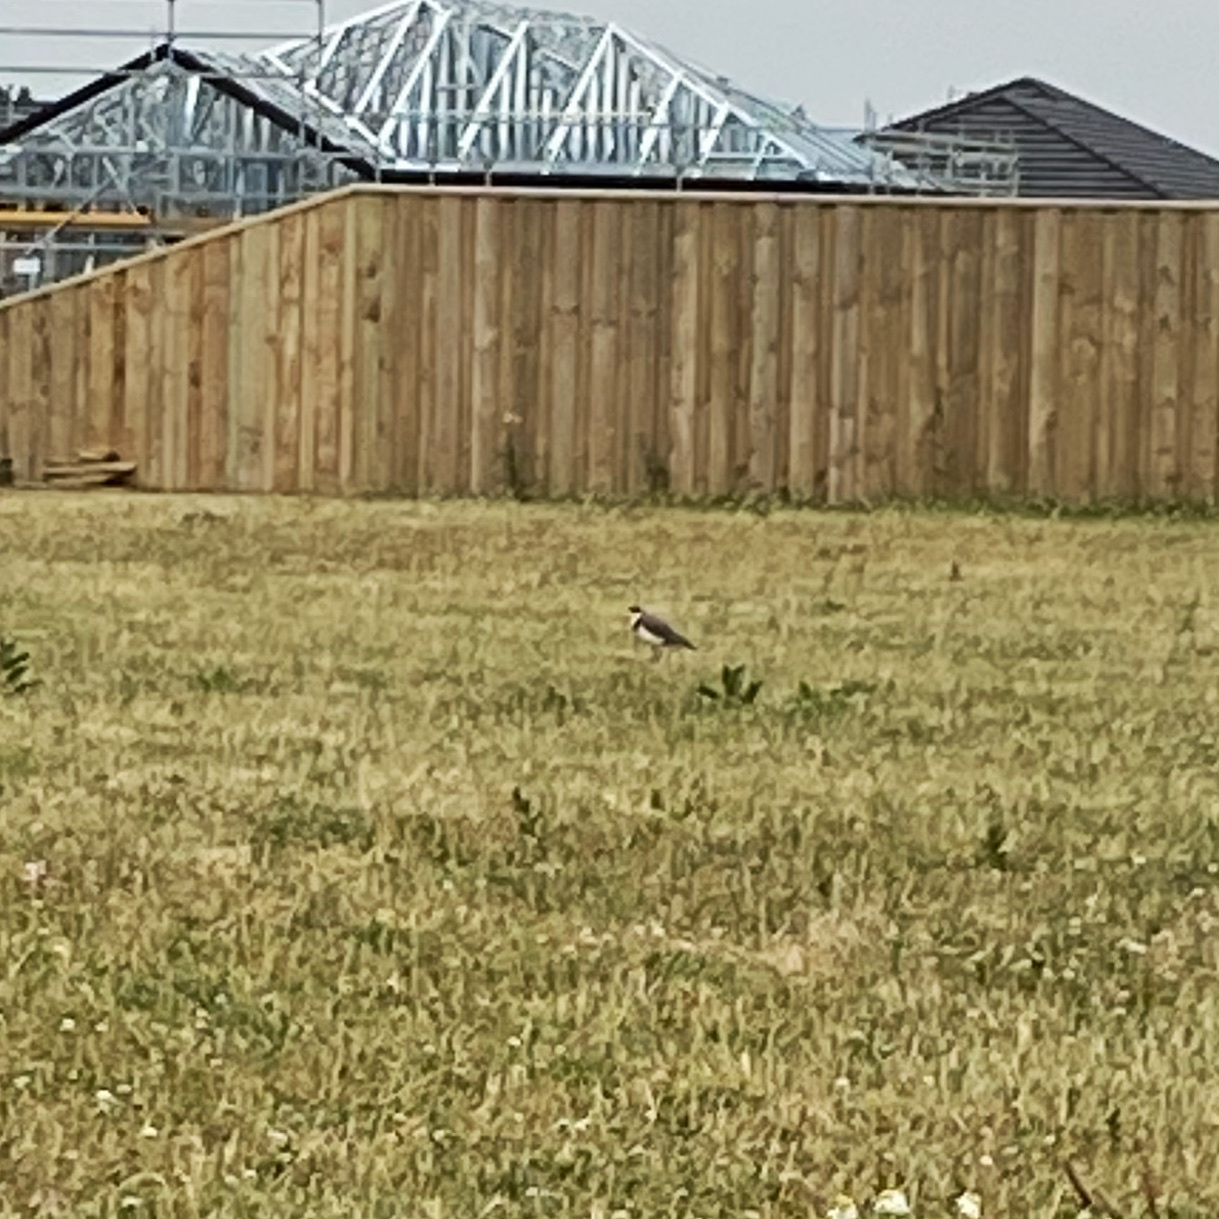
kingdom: Animalia
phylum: Chordata
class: Aves
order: Charadriiformes
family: Charadriidae
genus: Vanellus
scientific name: Vanellus miles
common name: Masked lapwing
